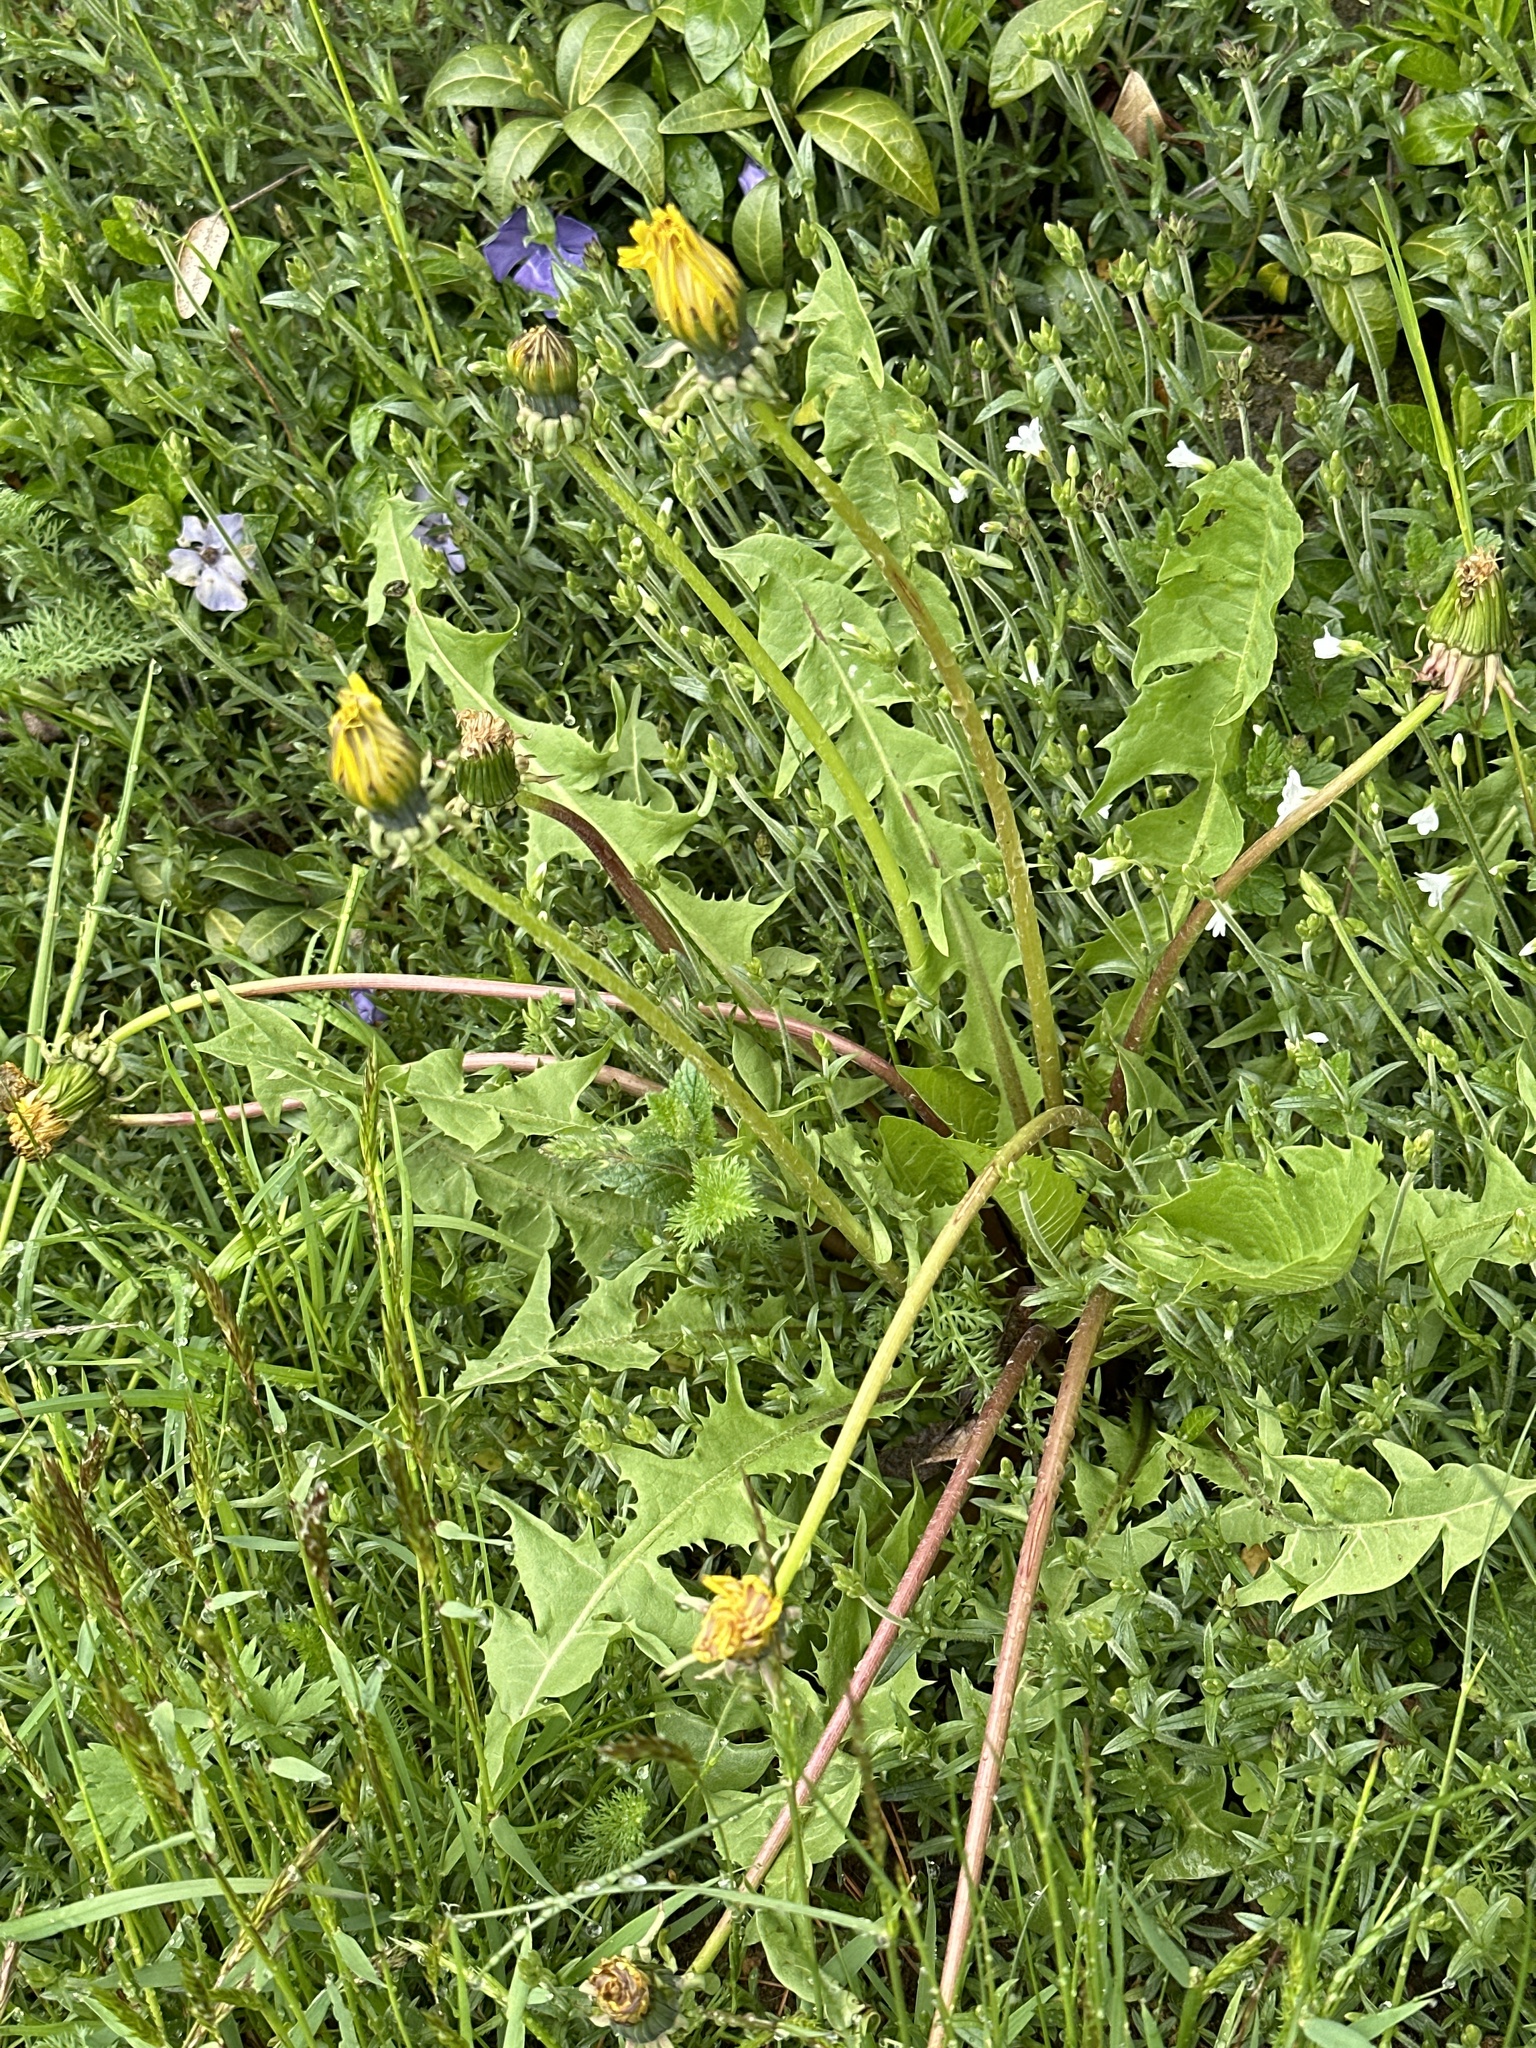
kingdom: Plantae
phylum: Tracheophyta
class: Magnoliopsida
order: Asterales
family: Asteraceae
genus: Taraxacum
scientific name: Taraxacum
